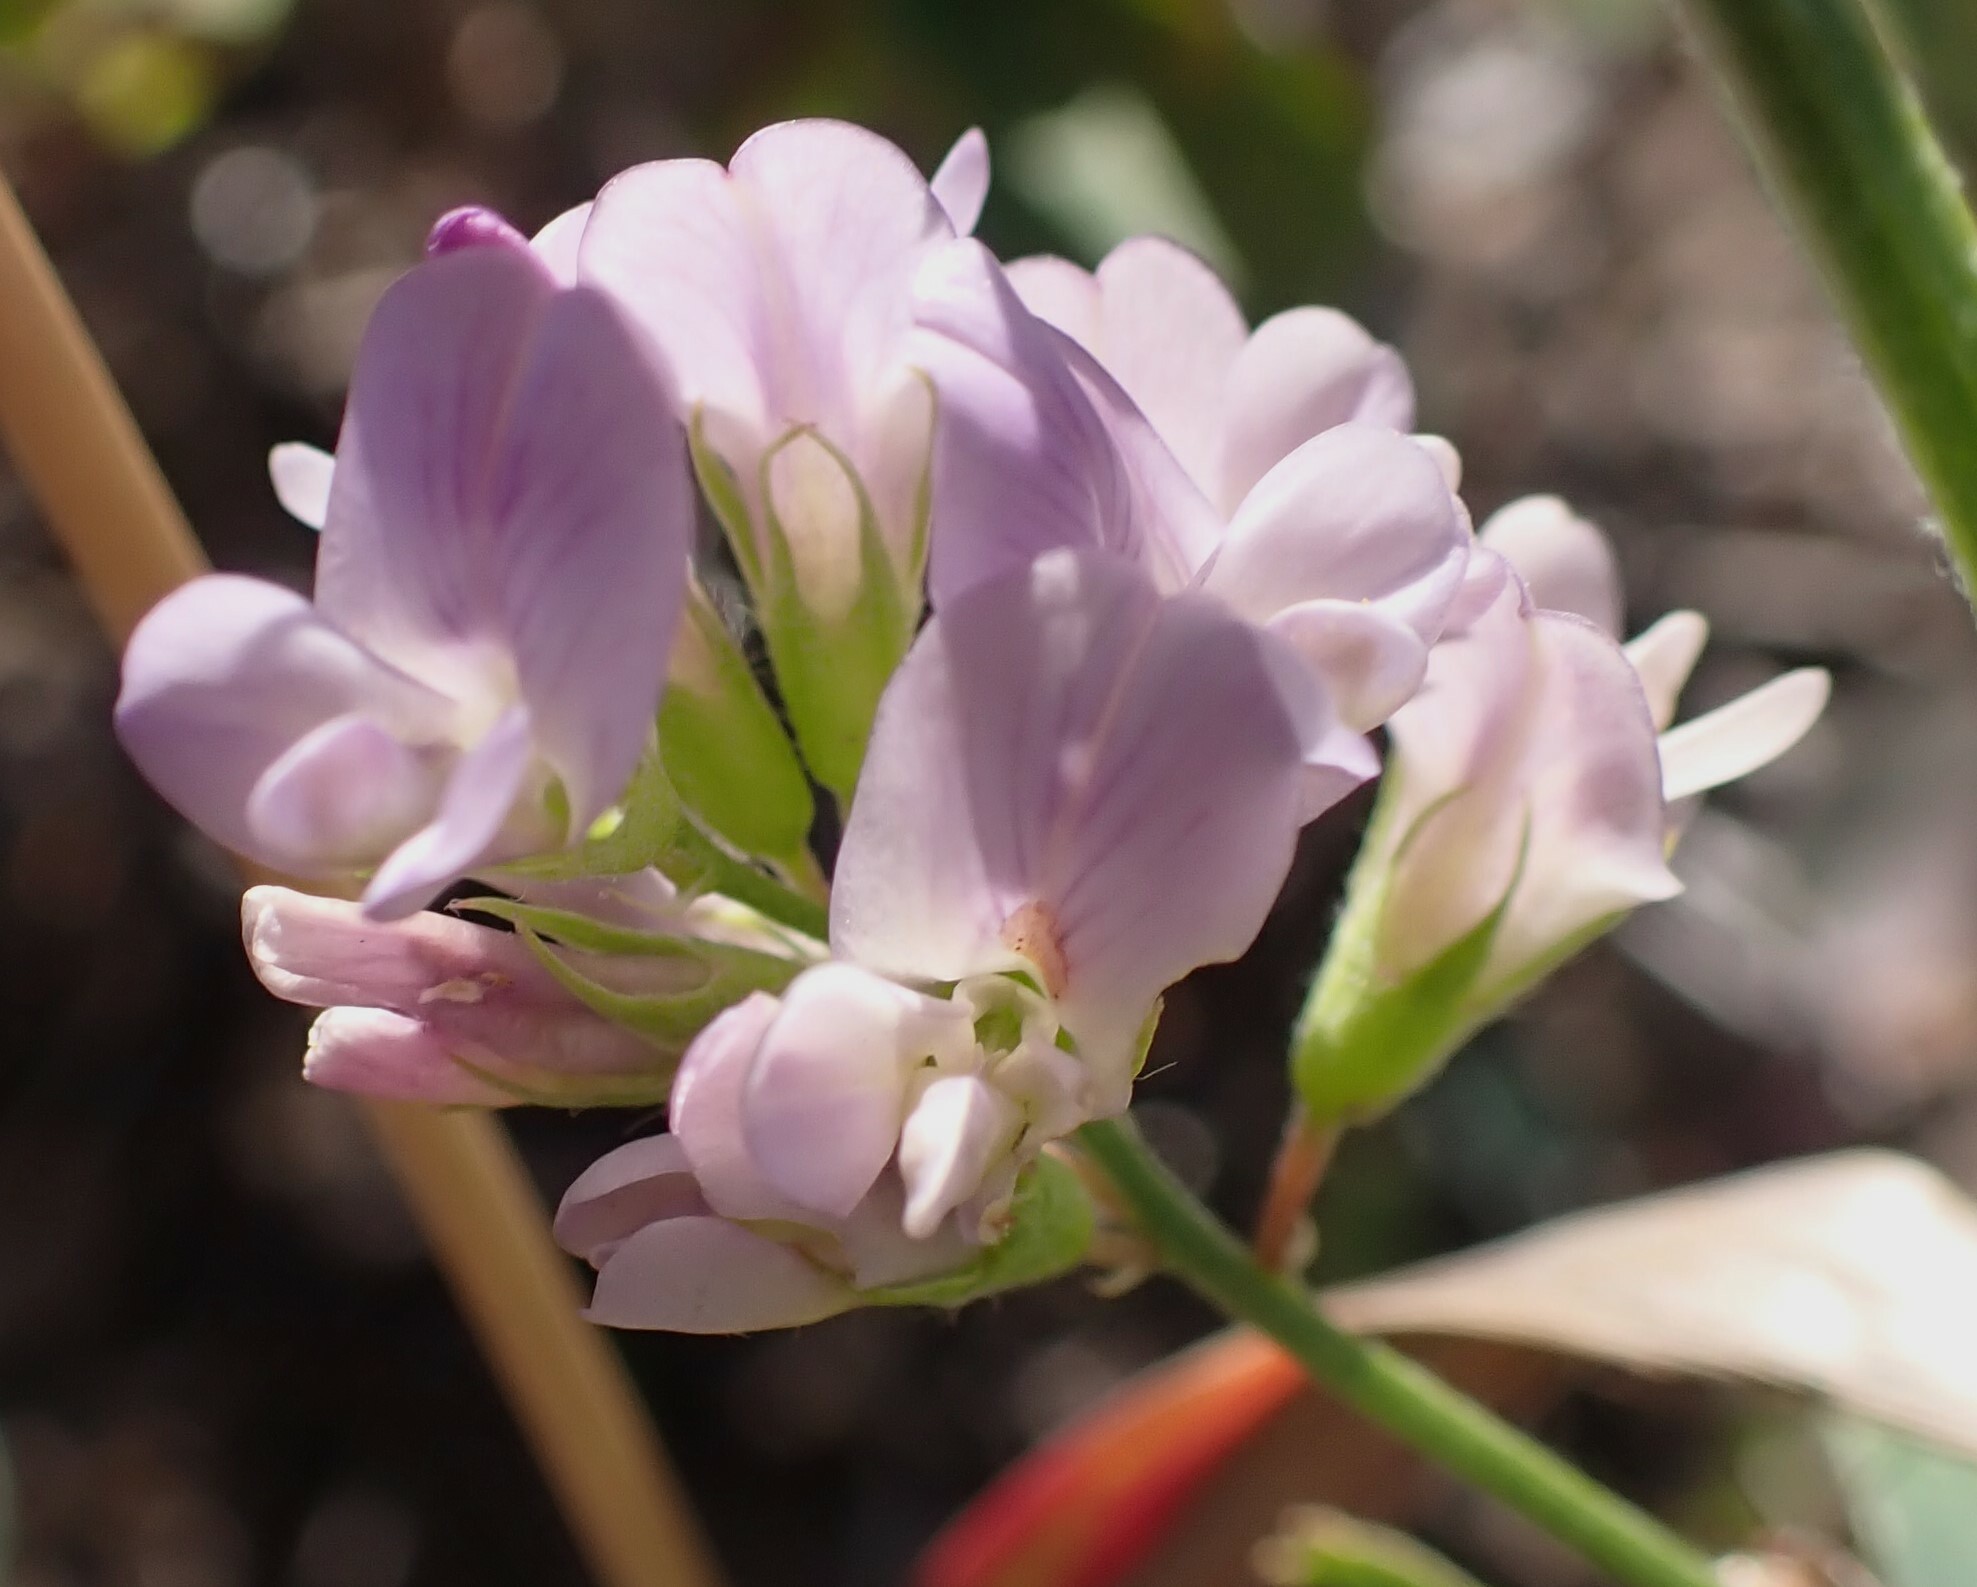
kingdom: Plantae
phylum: Tracheophyta
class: Magnoliopsida
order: Fabales
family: Fabaceae
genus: Medicago
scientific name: Medicago sativa
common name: Alfalfa
